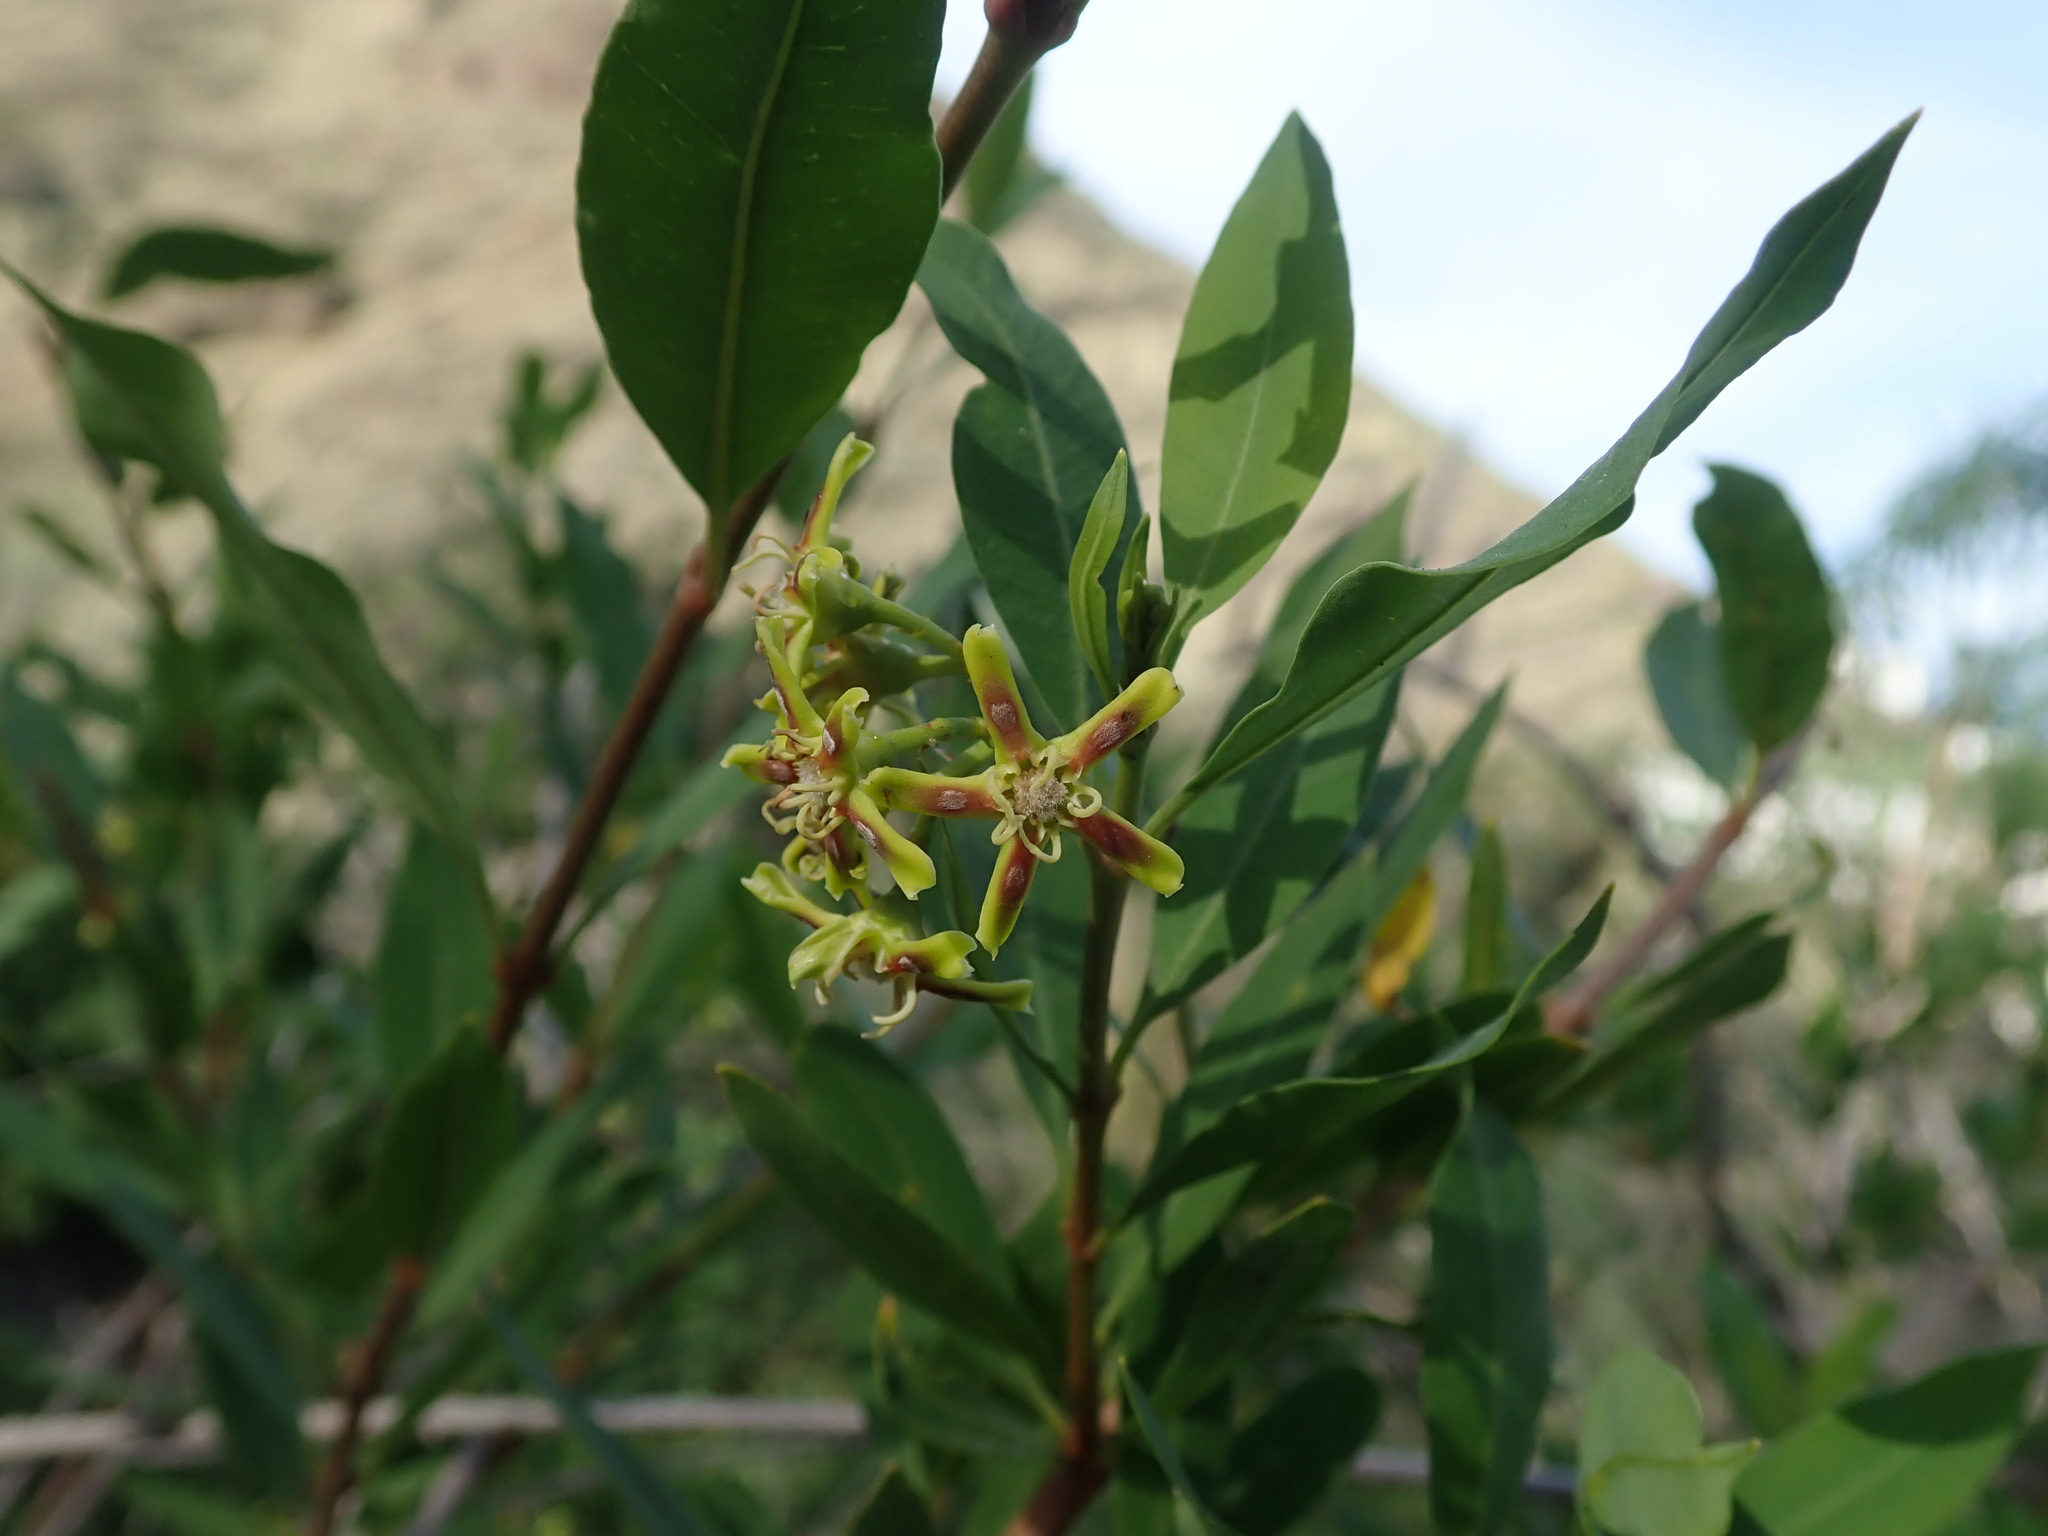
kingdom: Plantae
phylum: Tracheophyta
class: Magnoliopsida
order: Gentianales
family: Apocynaceae
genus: Periploca
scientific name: Periploca laevigata
